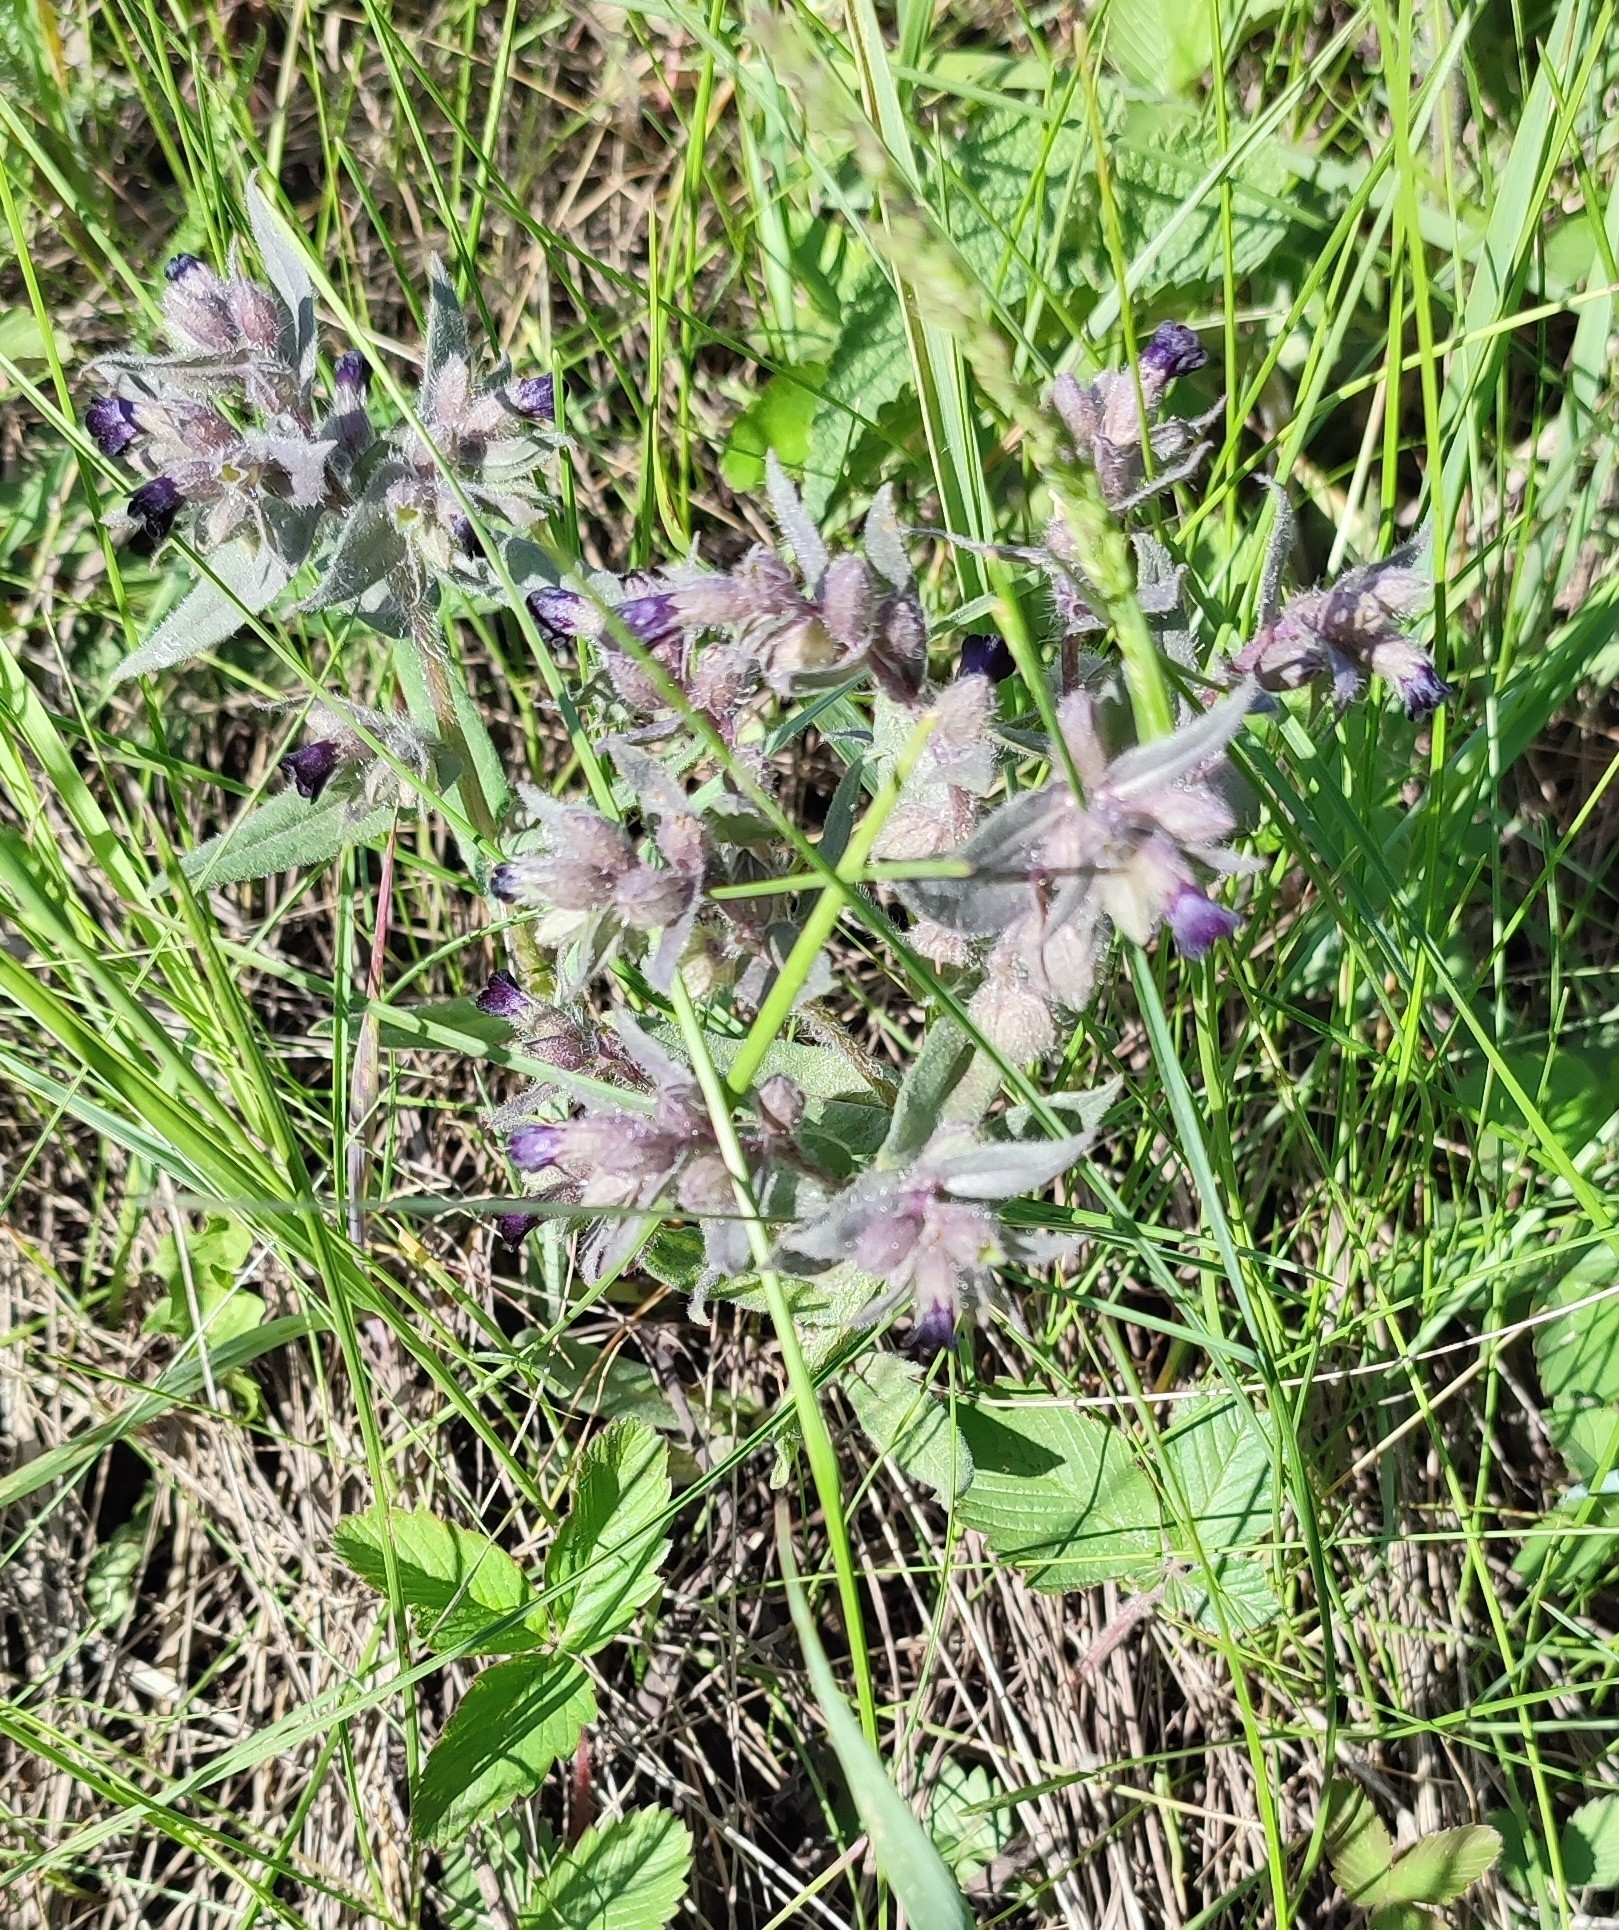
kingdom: Plantae
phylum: Tracheophyta
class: Magnoliopsida
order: Boraginales
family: Boraginaceae
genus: Nonea
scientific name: Nonea pulla
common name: Brown nonea
